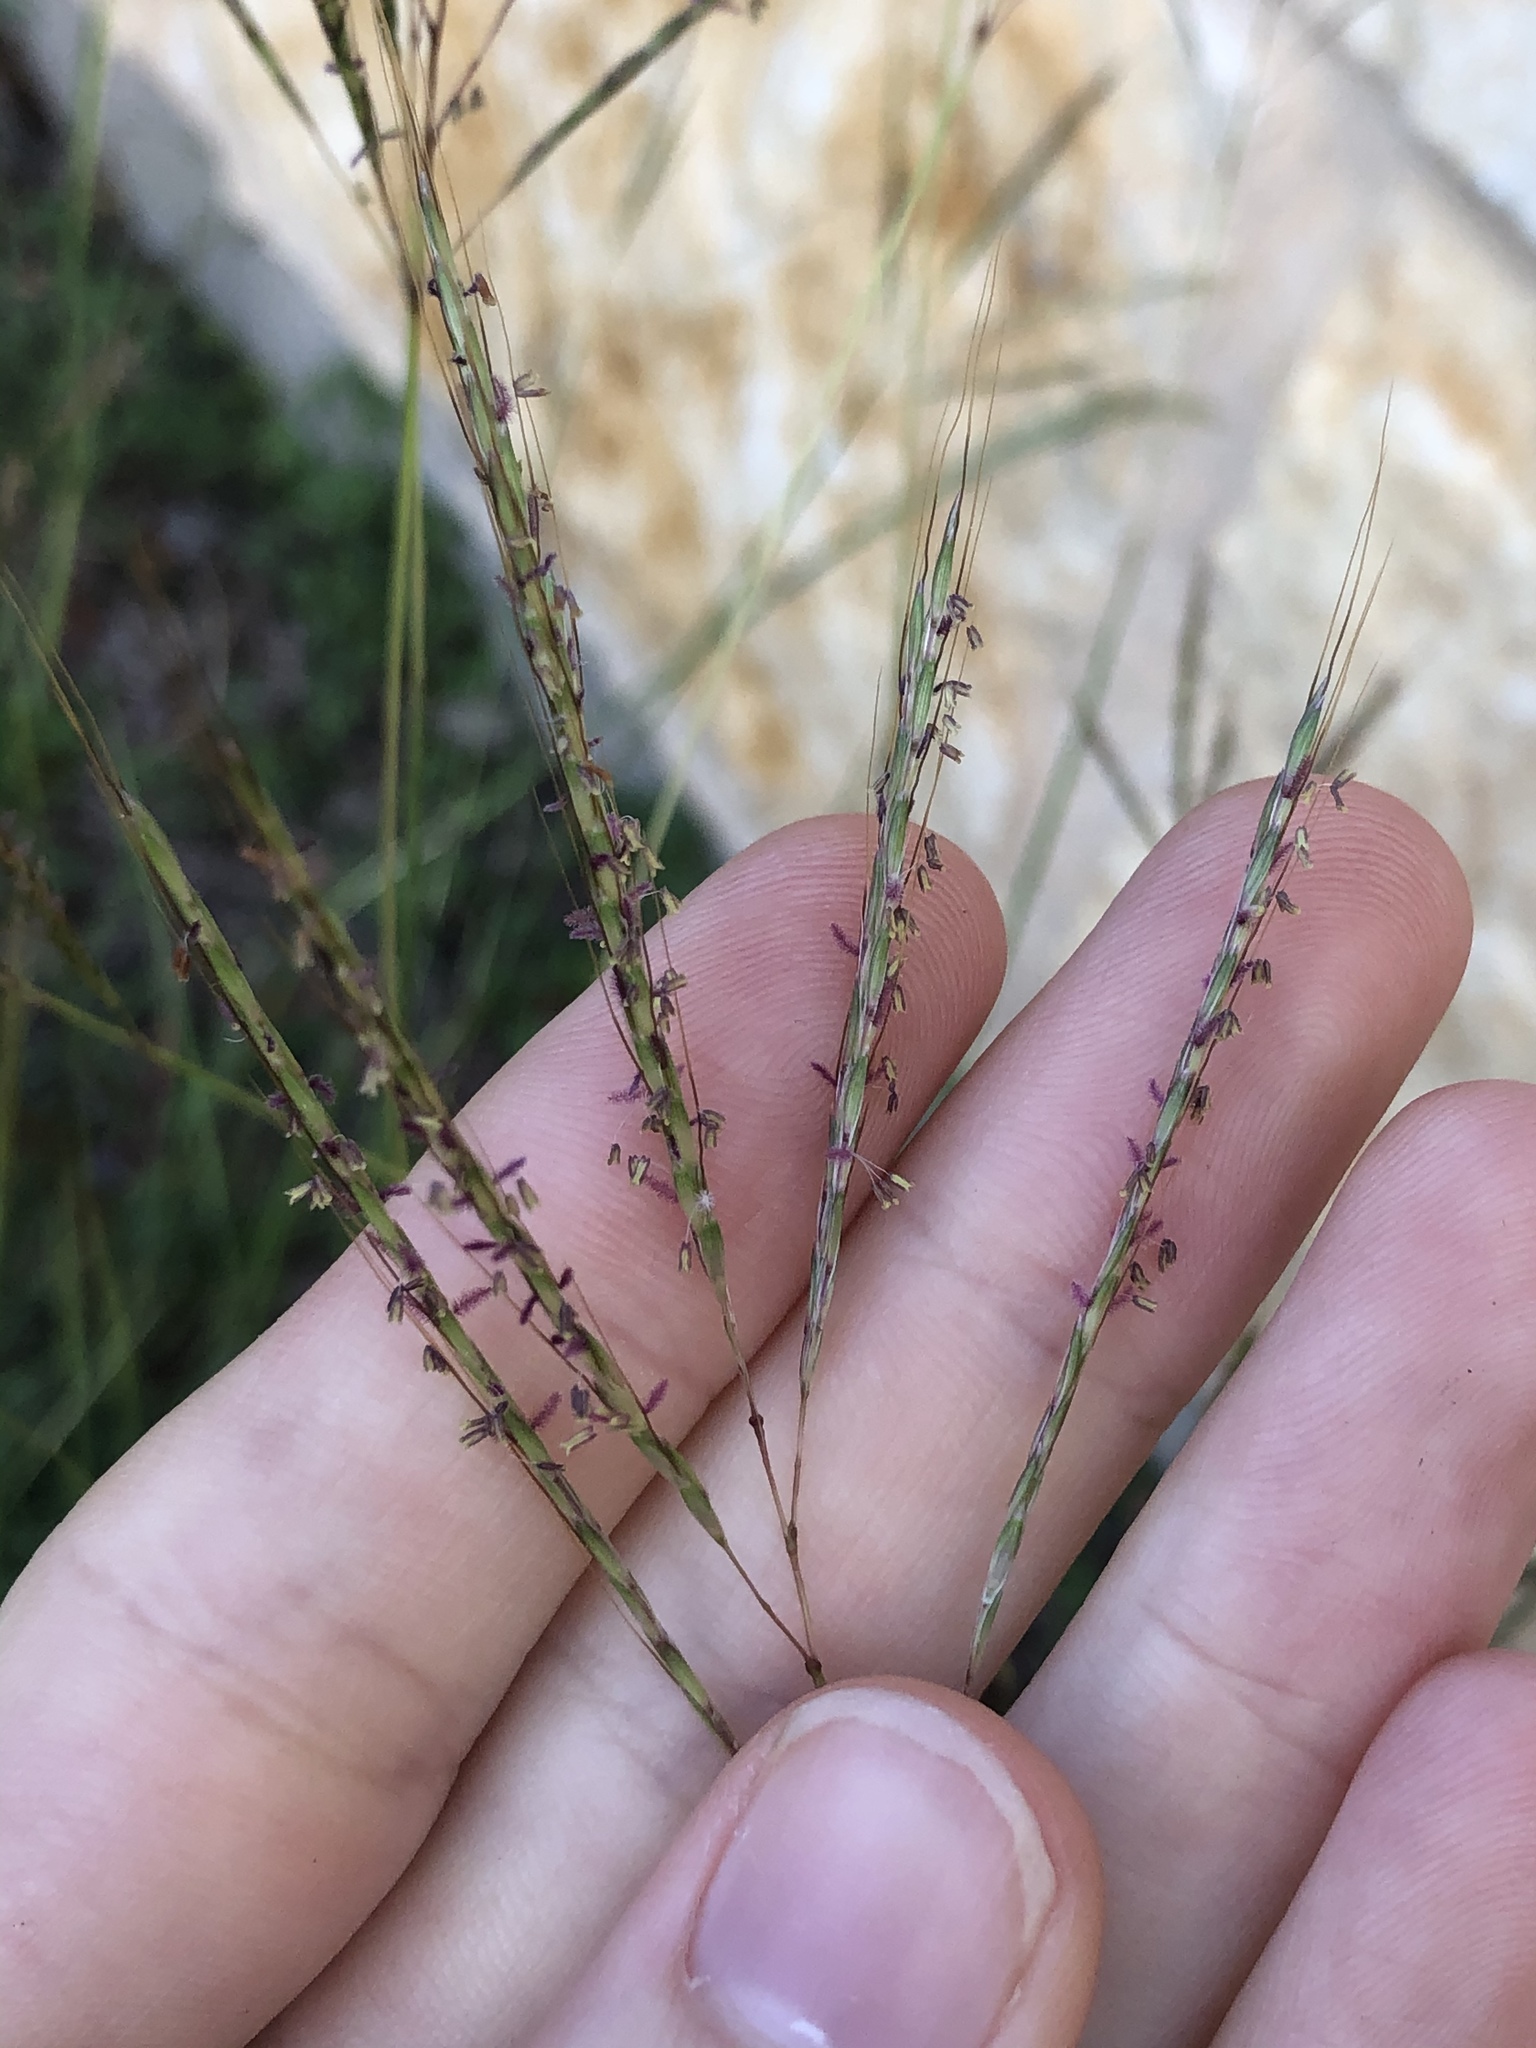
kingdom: Plantae
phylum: Tracheophyta
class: Liliopsida
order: Poales
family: Poaceae
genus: Bothriochloa
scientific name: Bothriochloa ischaemum
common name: Yellow bluestem
